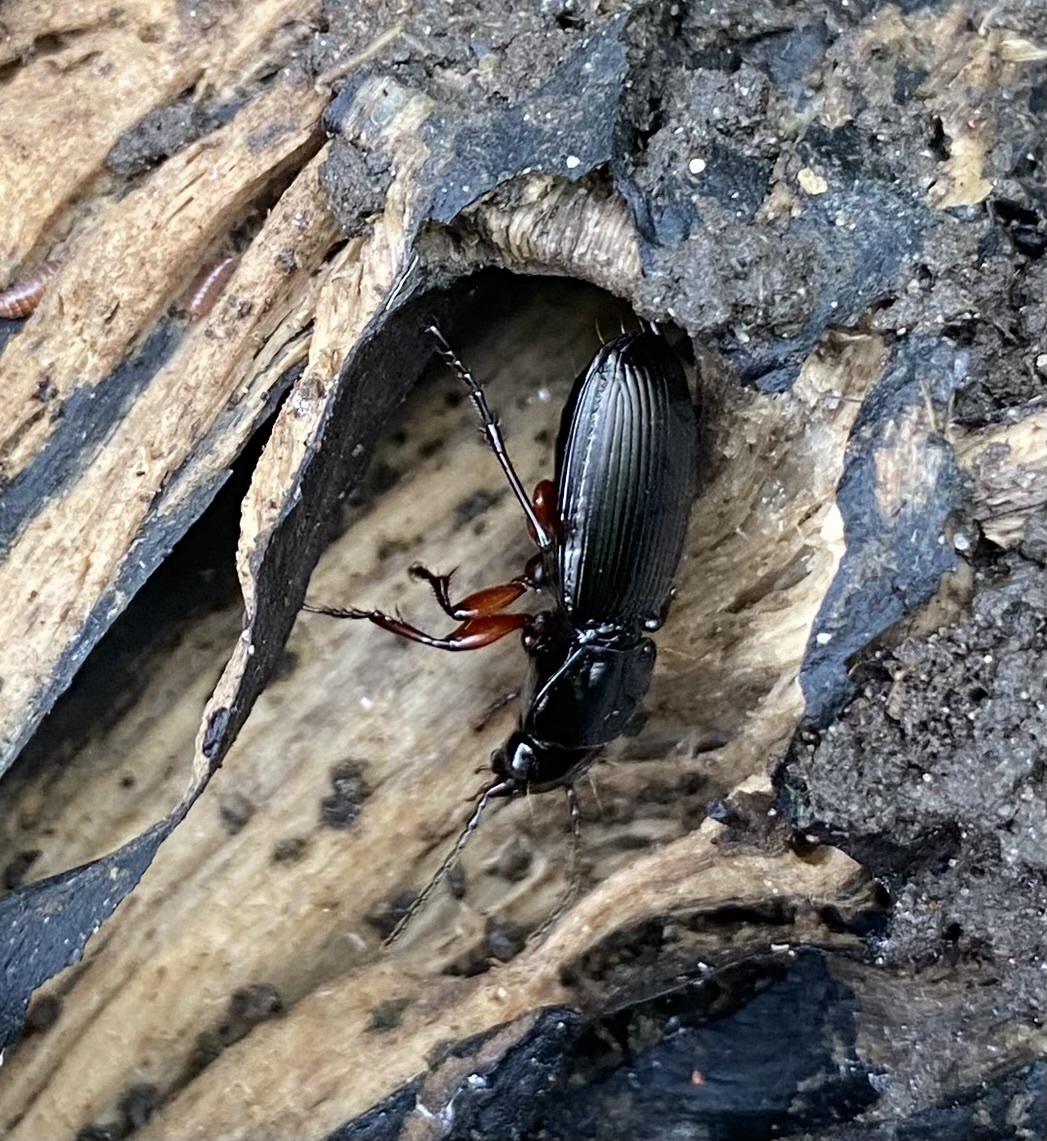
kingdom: Animalia
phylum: Arthropoda
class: Insecta
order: Coleoptera
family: Carabidae
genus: Pterostichus
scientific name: Pterostichus madidus
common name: Black clock
